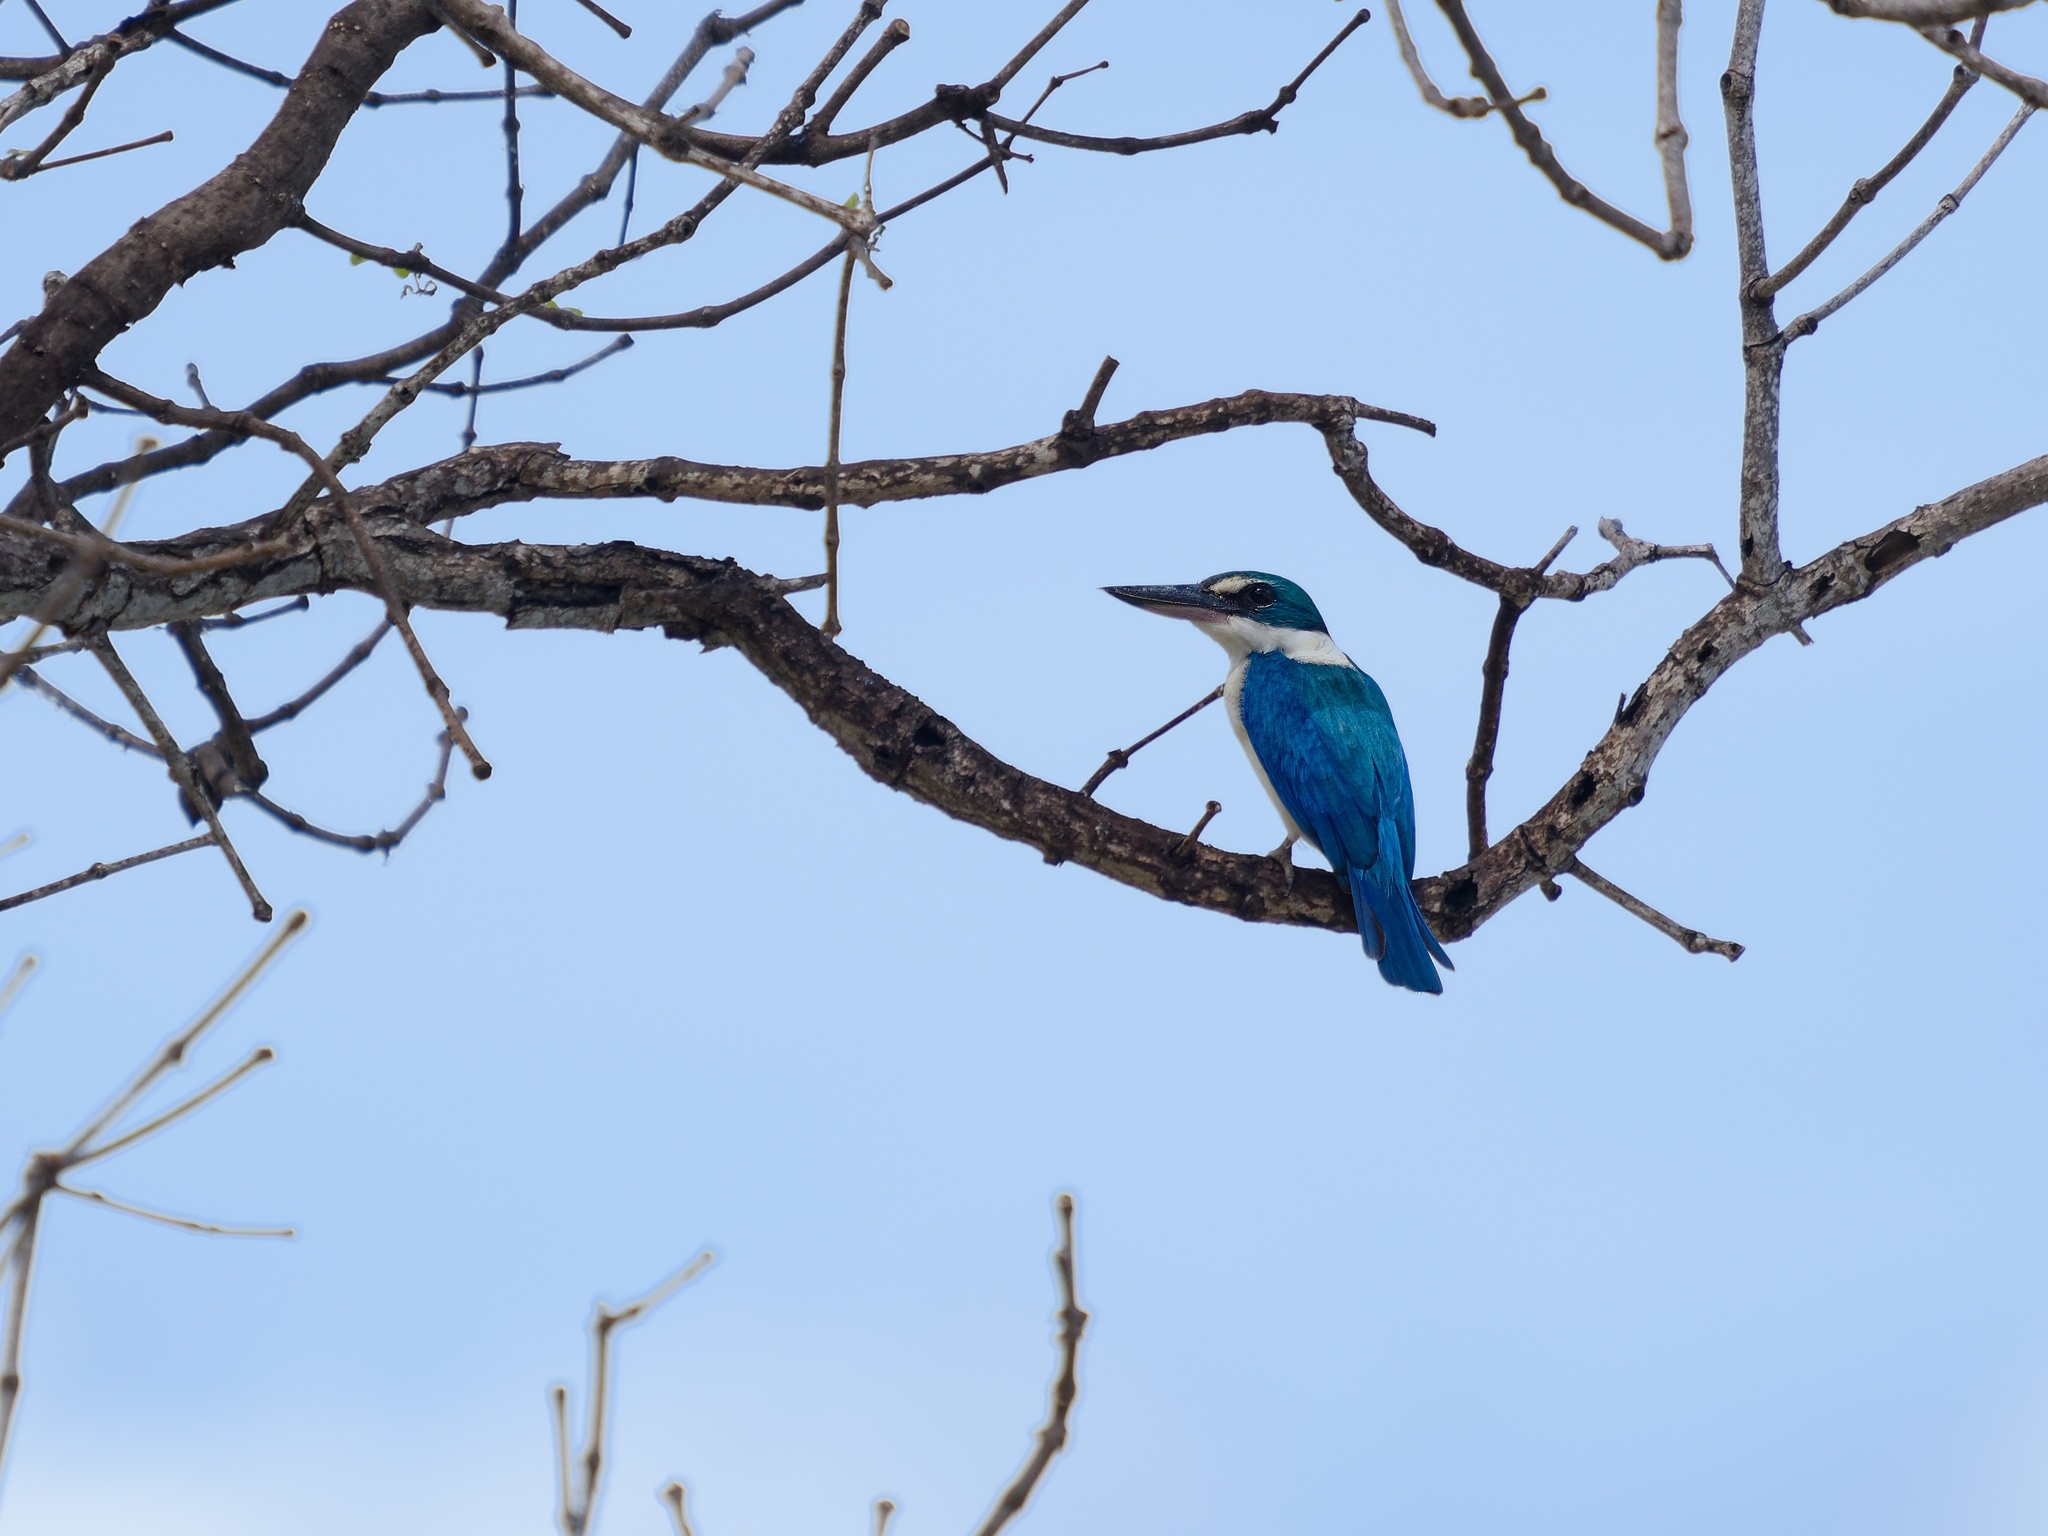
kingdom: Animalia
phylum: Chordata
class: Aves
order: Coraciiformes
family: Alcedinidae
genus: Todiramphus
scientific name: Todiramphus chloris
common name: Collared kingfisher
